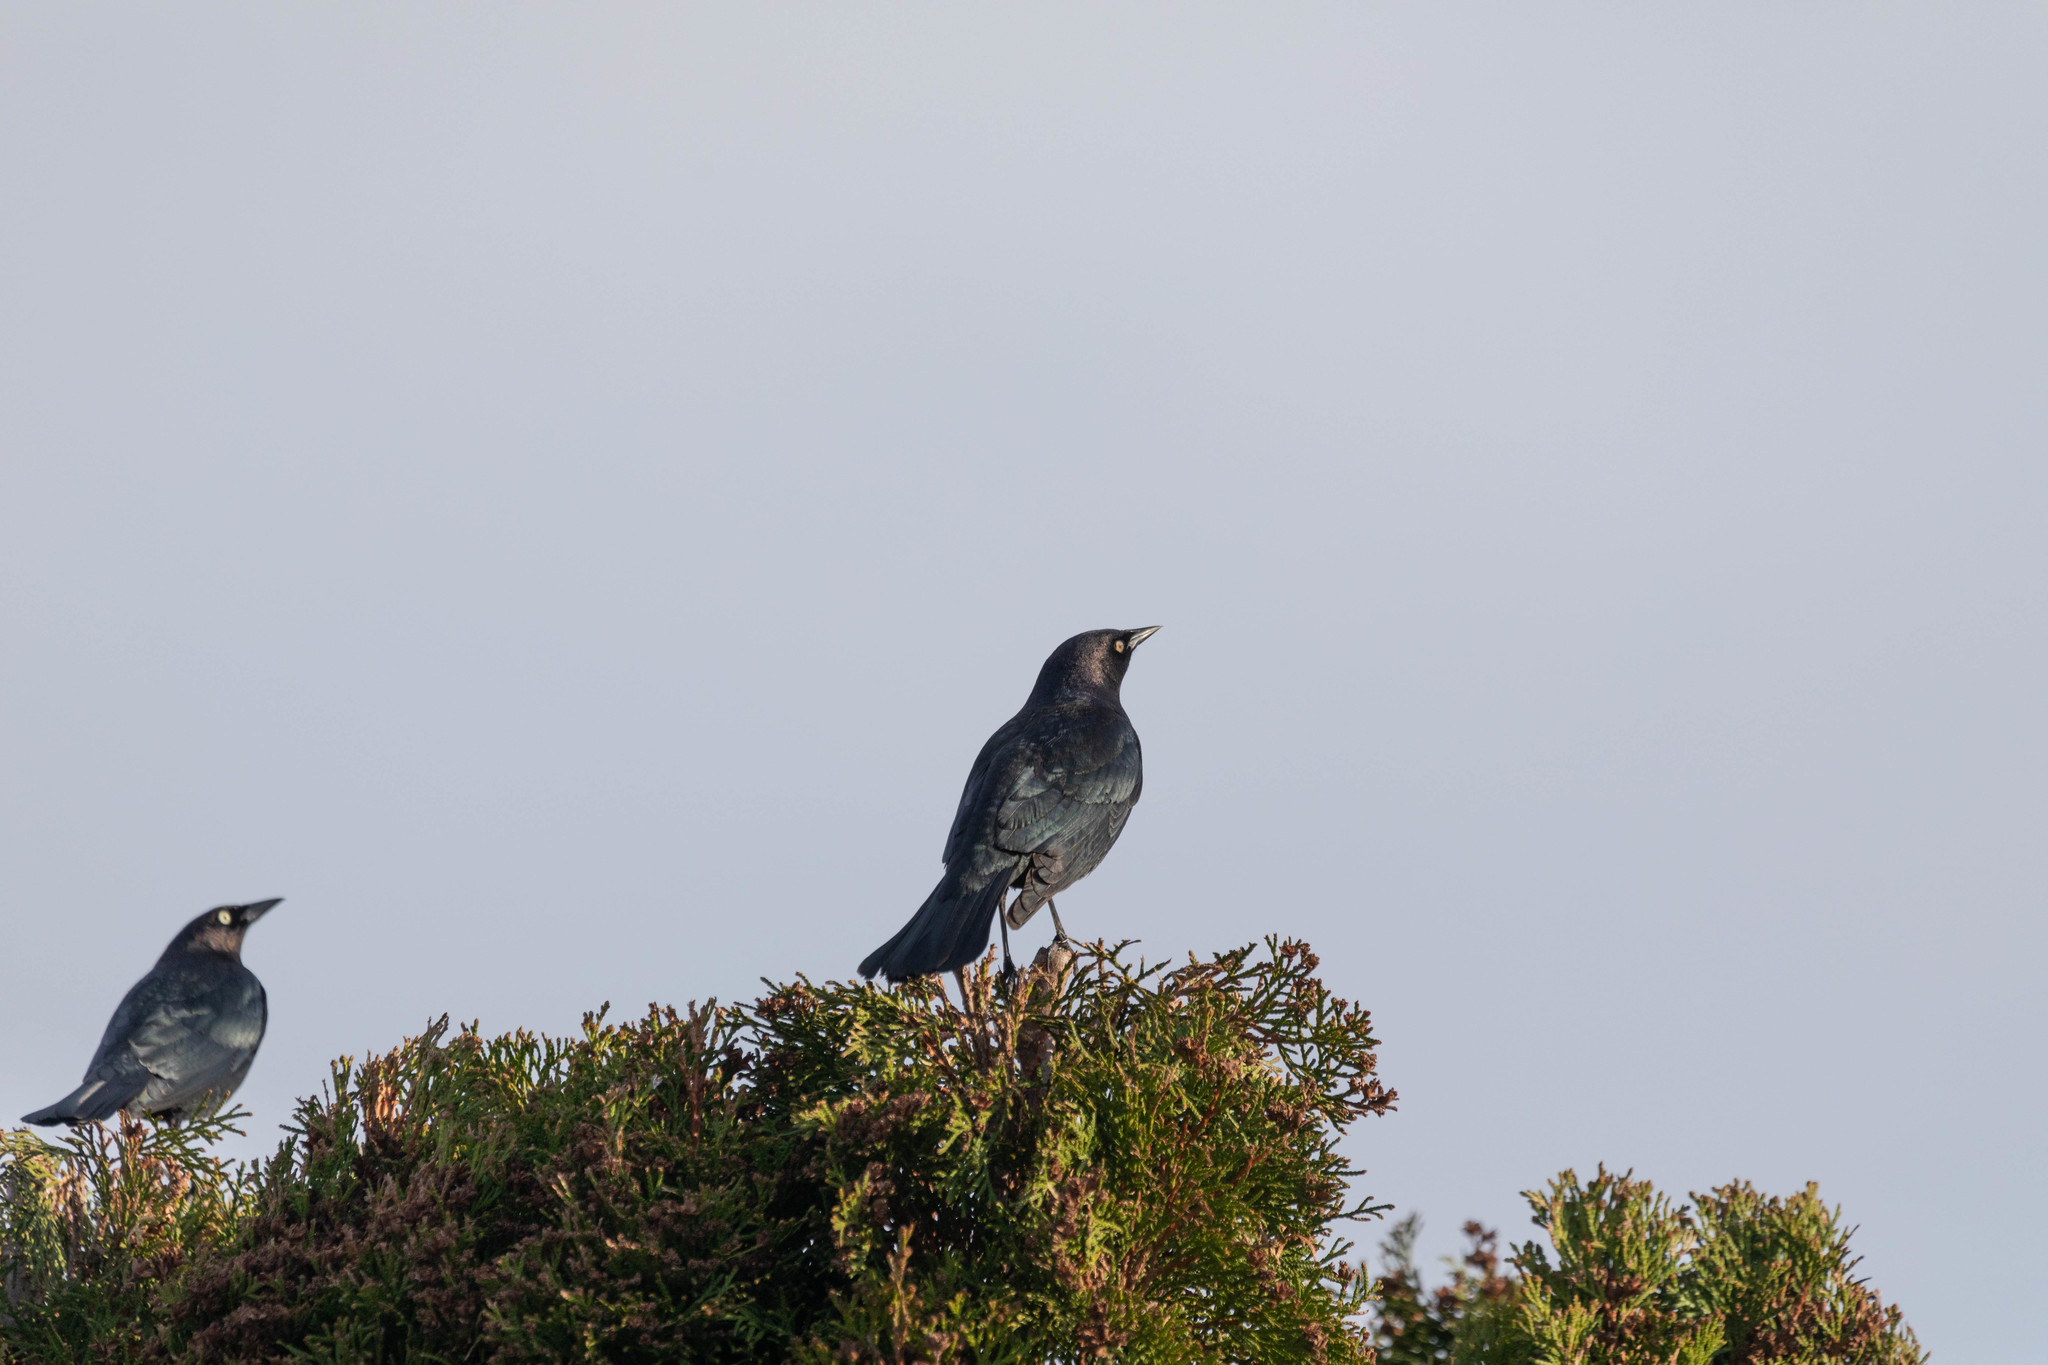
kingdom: Animalia
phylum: Chordata
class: Aves
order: Passeriformes
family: Icteridae
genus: Euphagus
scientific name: Euphagus cyanocephalus
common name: Brewer's blackbird
